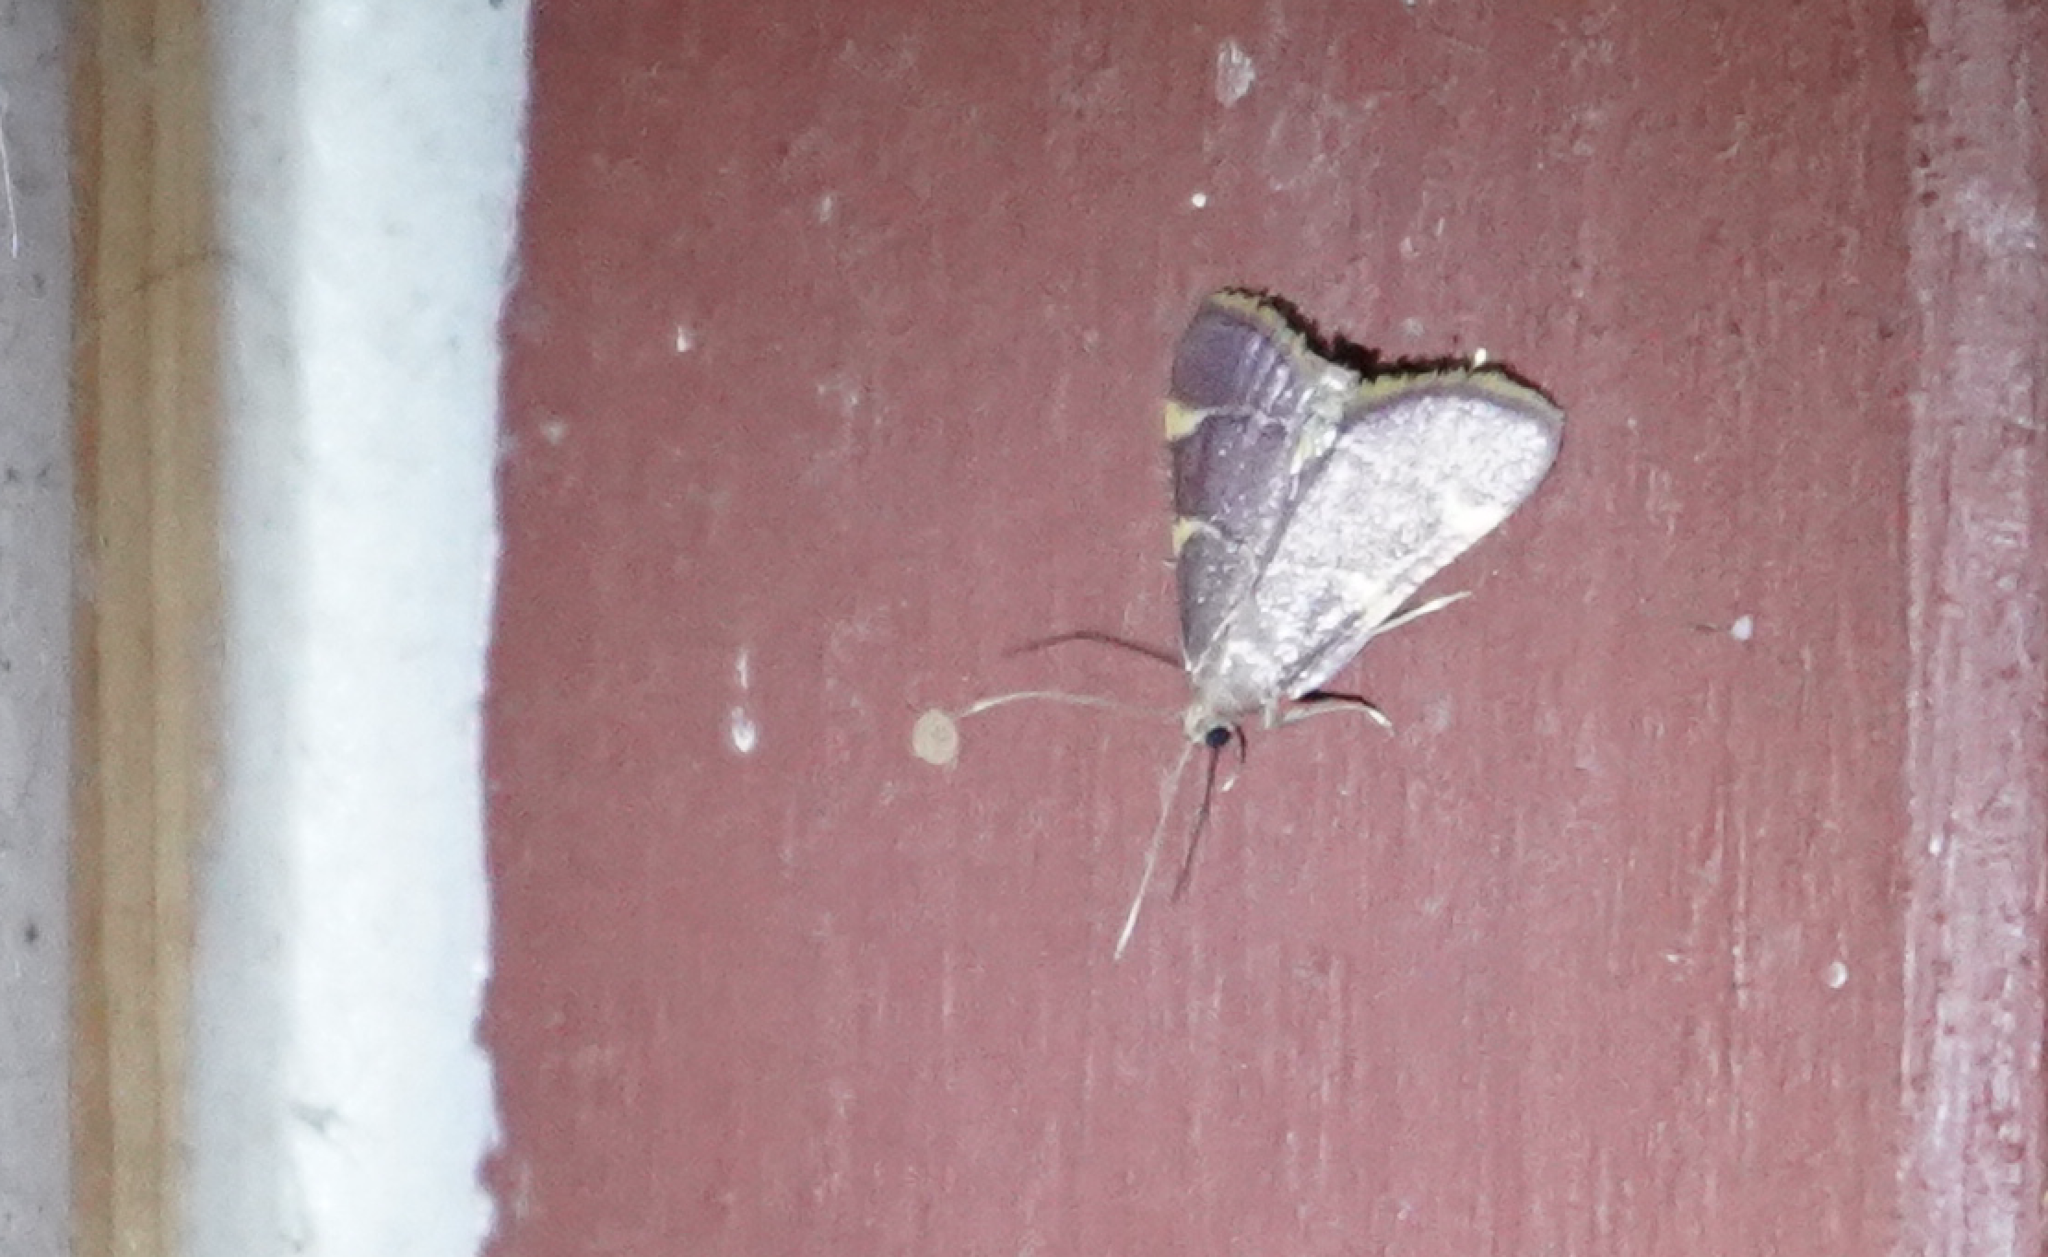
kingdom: Animalia
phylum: Arthropoda
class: Insecta
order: Lepidoptera
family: Pyralidae
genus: Hypsopygia
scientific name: Hypsopygia olinalis
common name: Yellow-fringed dolichomia moth
